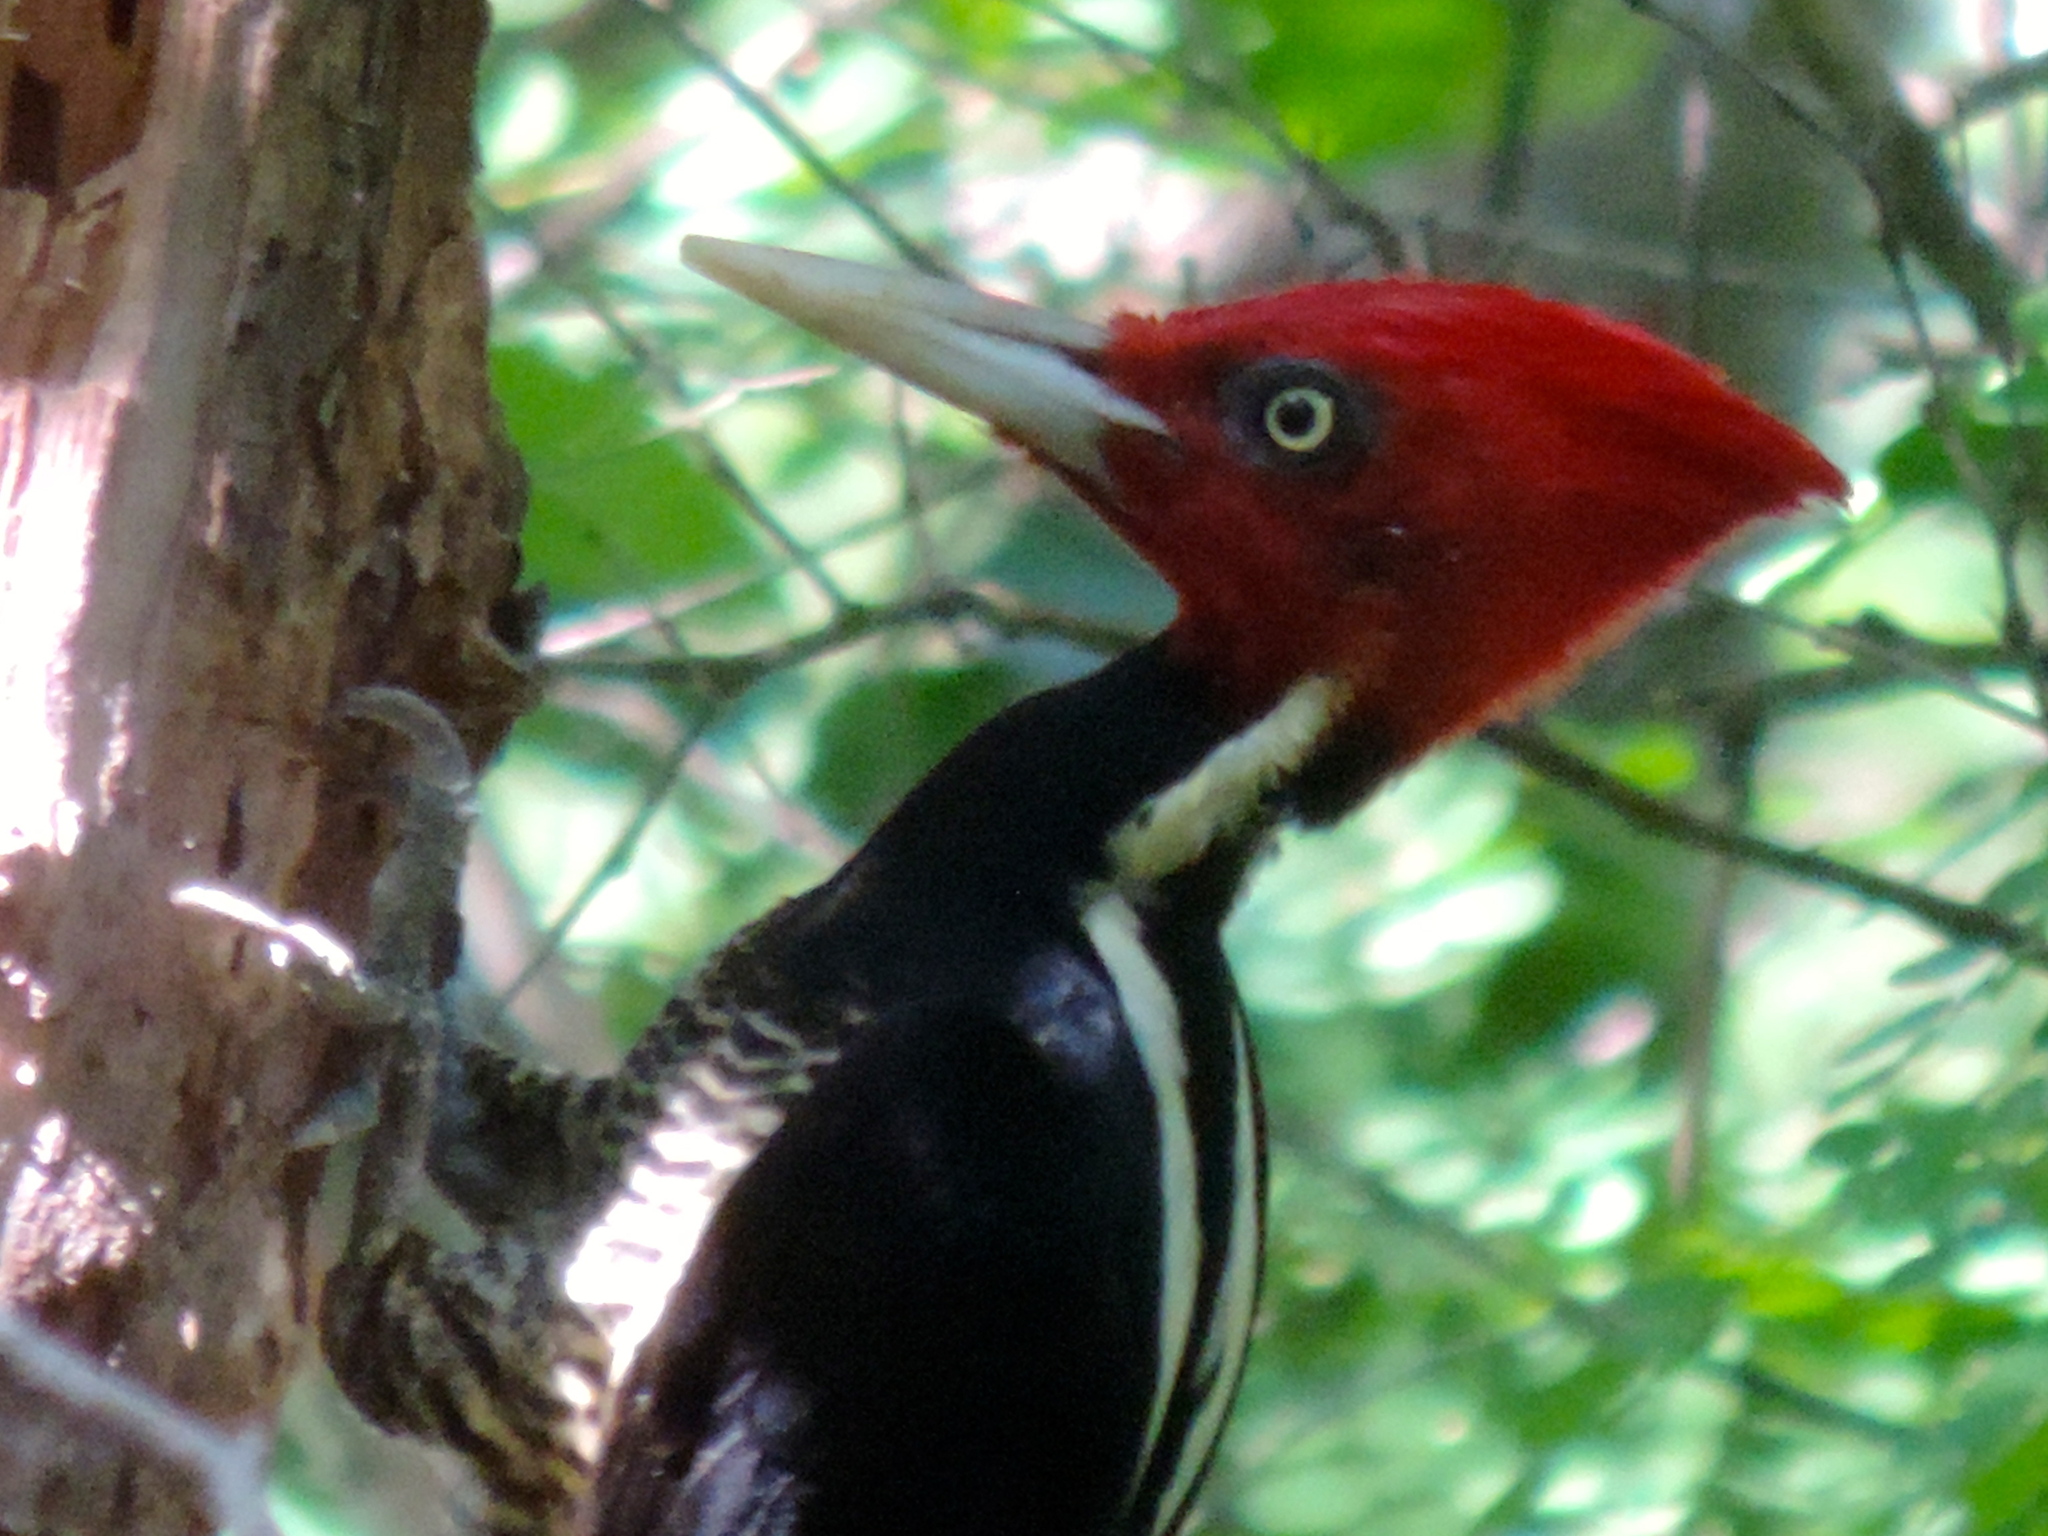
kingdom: Animalia
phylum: Chordata
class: Aves
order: Piciformes
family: Picidae
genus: Campephilus
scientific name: Campephilus guatemalensis
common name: Pale-billed woodpecker
